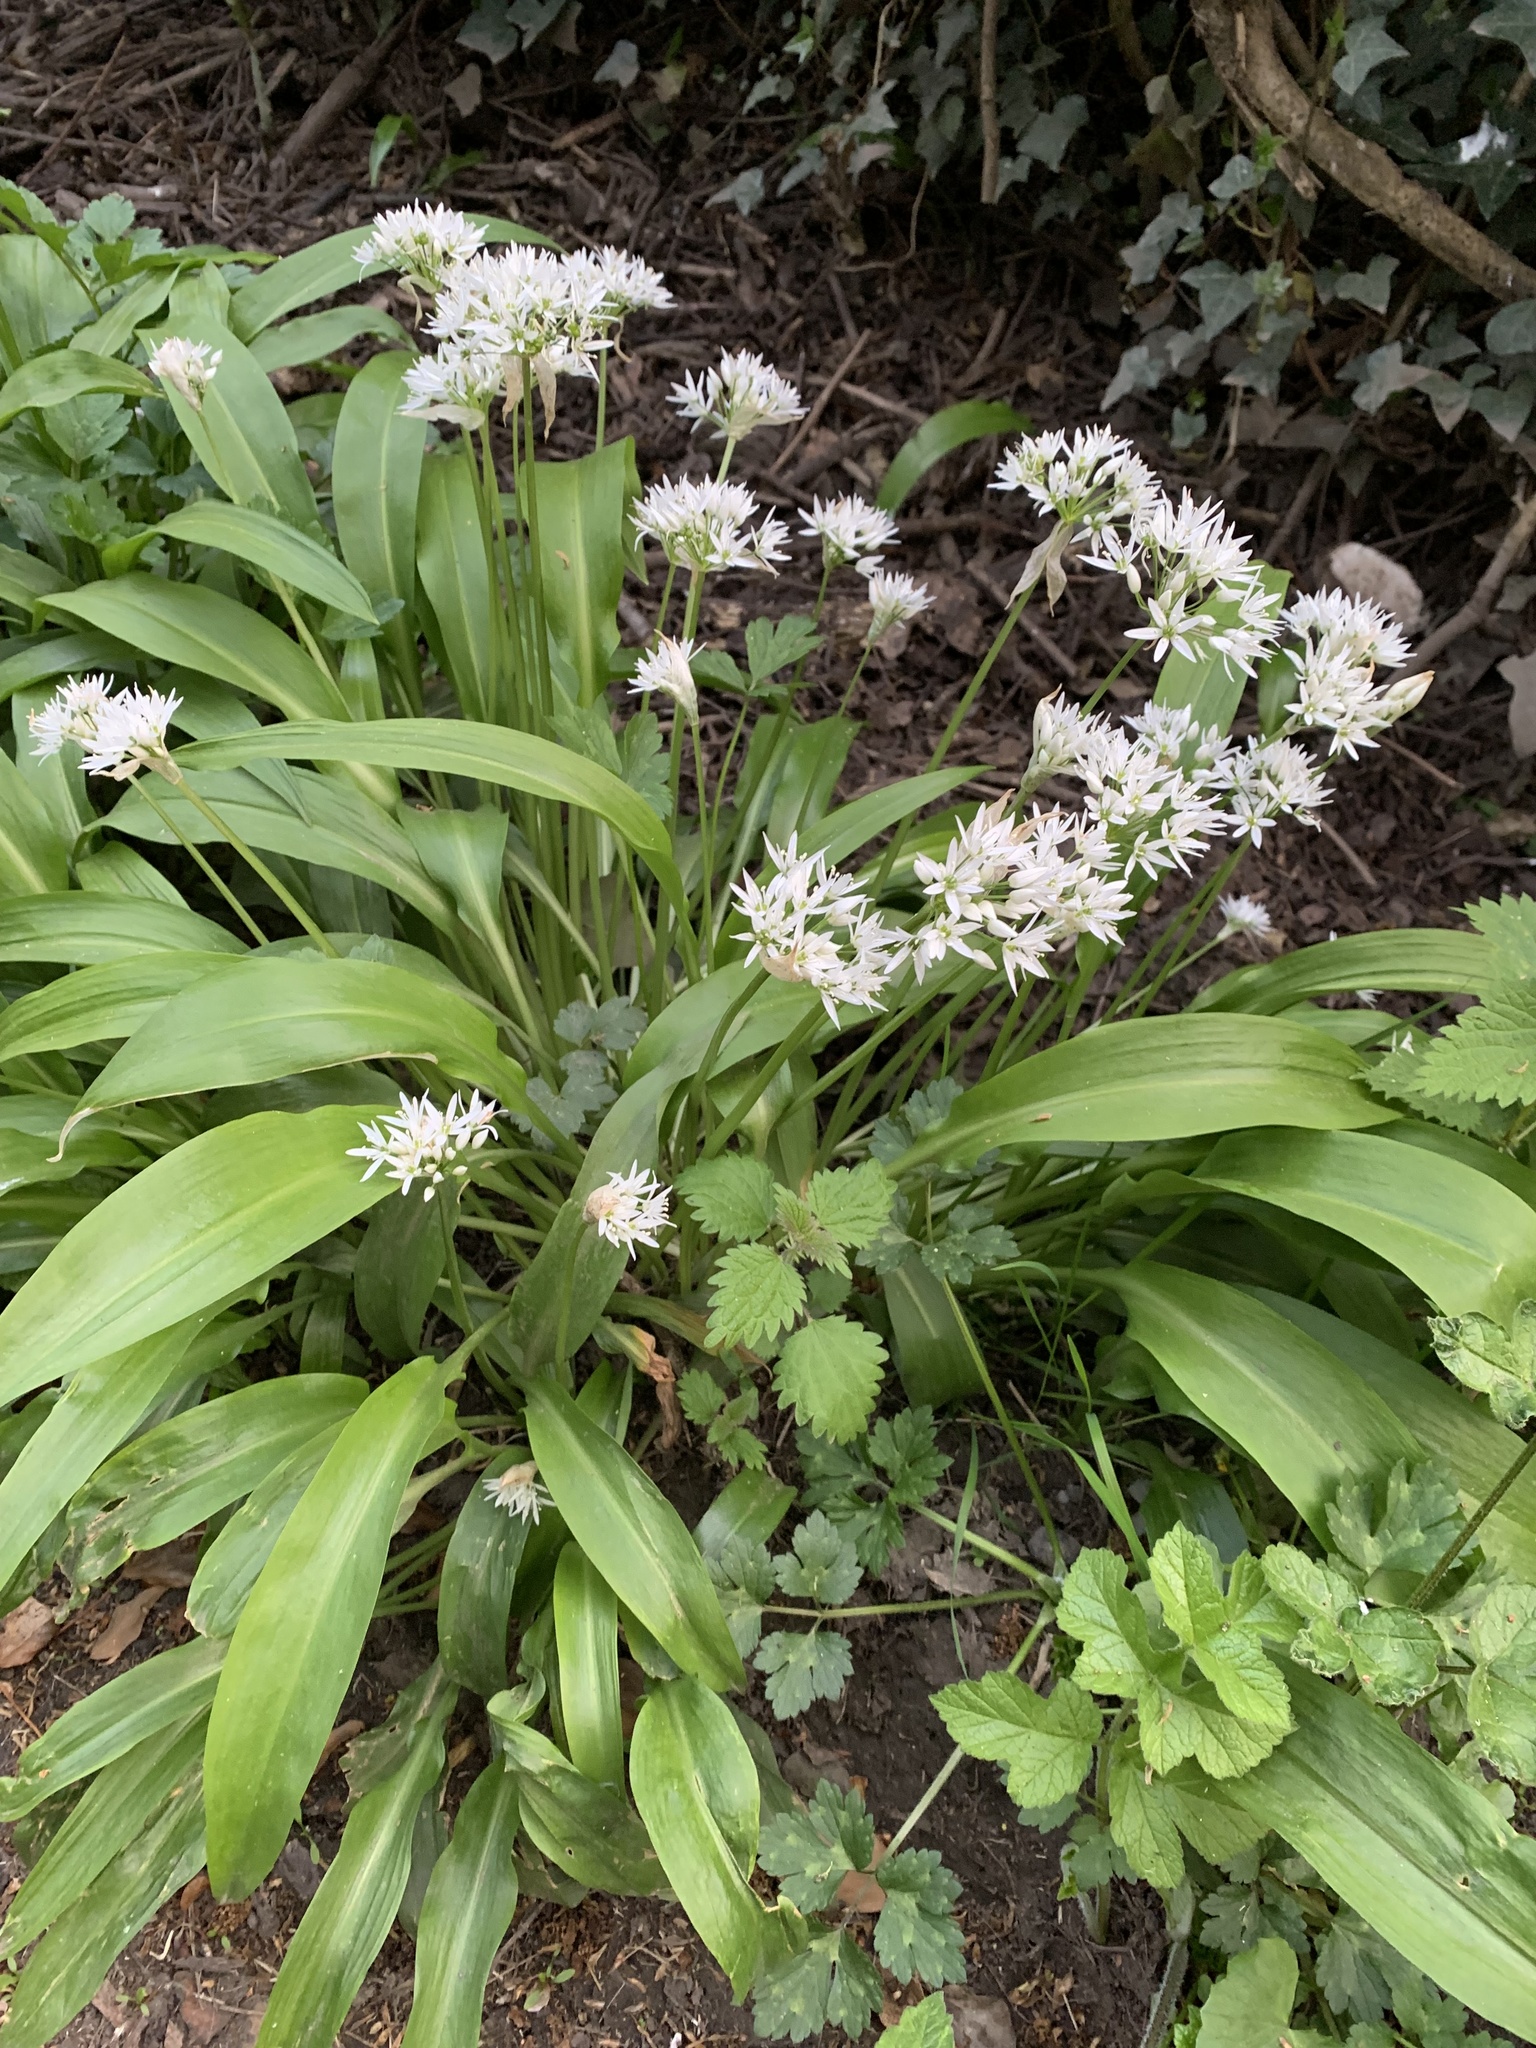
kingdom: Plantae
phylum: Tracheophyta
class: Liliopsida
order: Asparagales
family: Amaryllidaceae
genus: Allium
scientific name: Allium ursinum
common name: Ramsons
